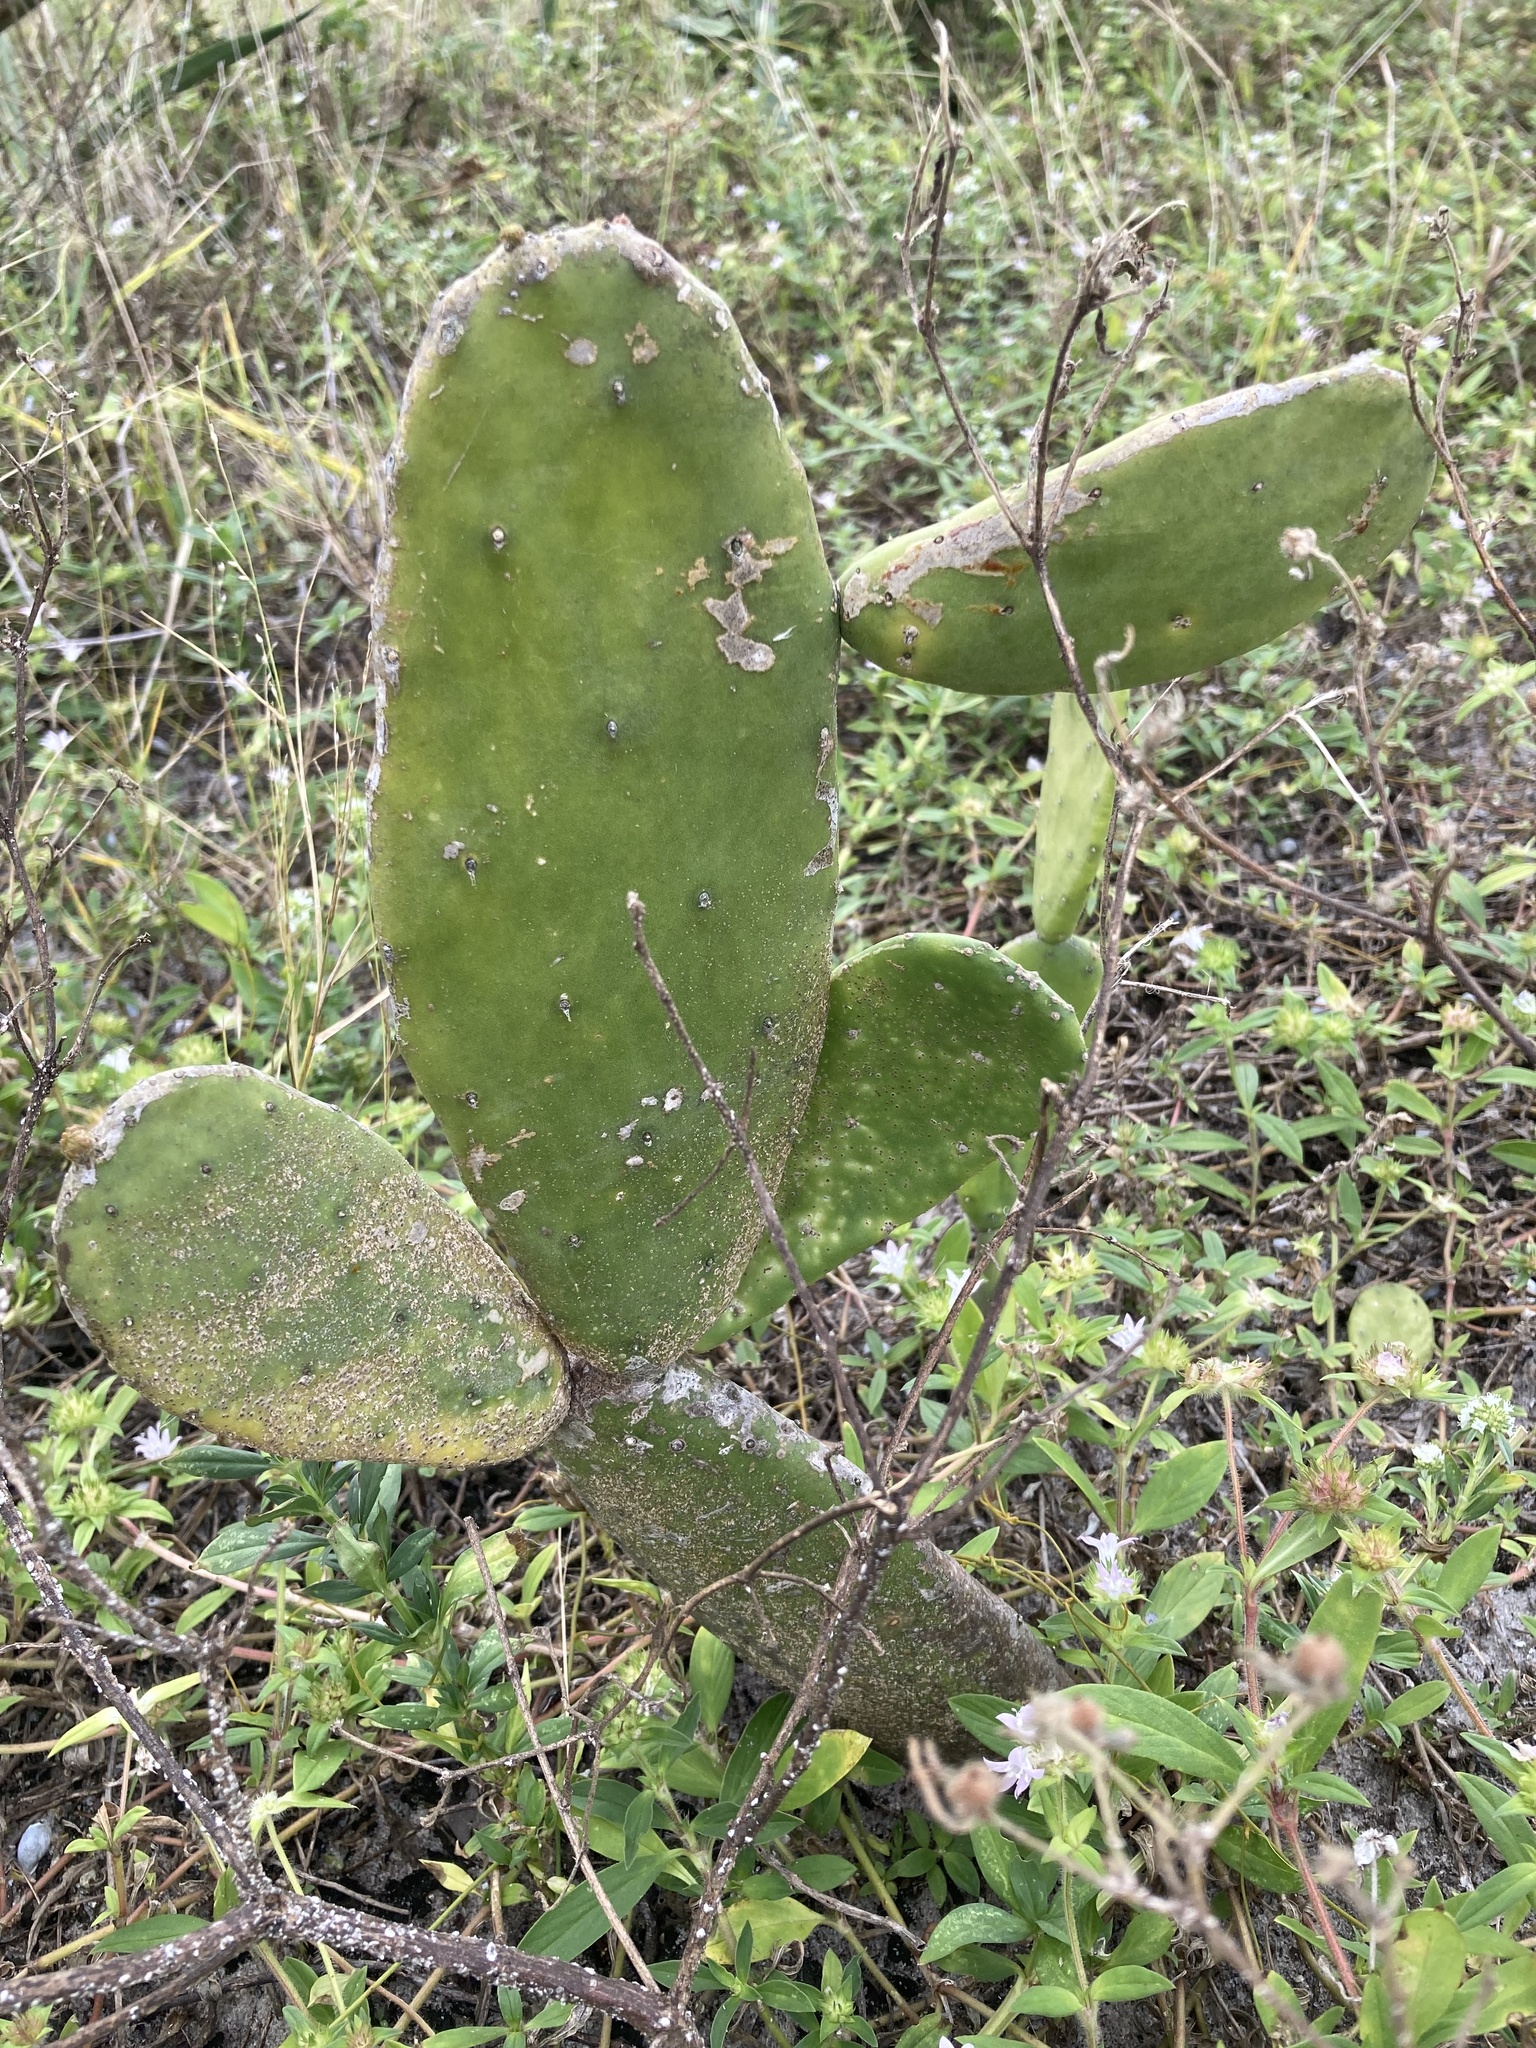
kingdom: Plantae
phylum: Tracheophyta
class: Magnoliopsida
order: Caryophyllales
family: Cactaceae
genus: Opuntia
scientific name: Opuntia cochenillifera
